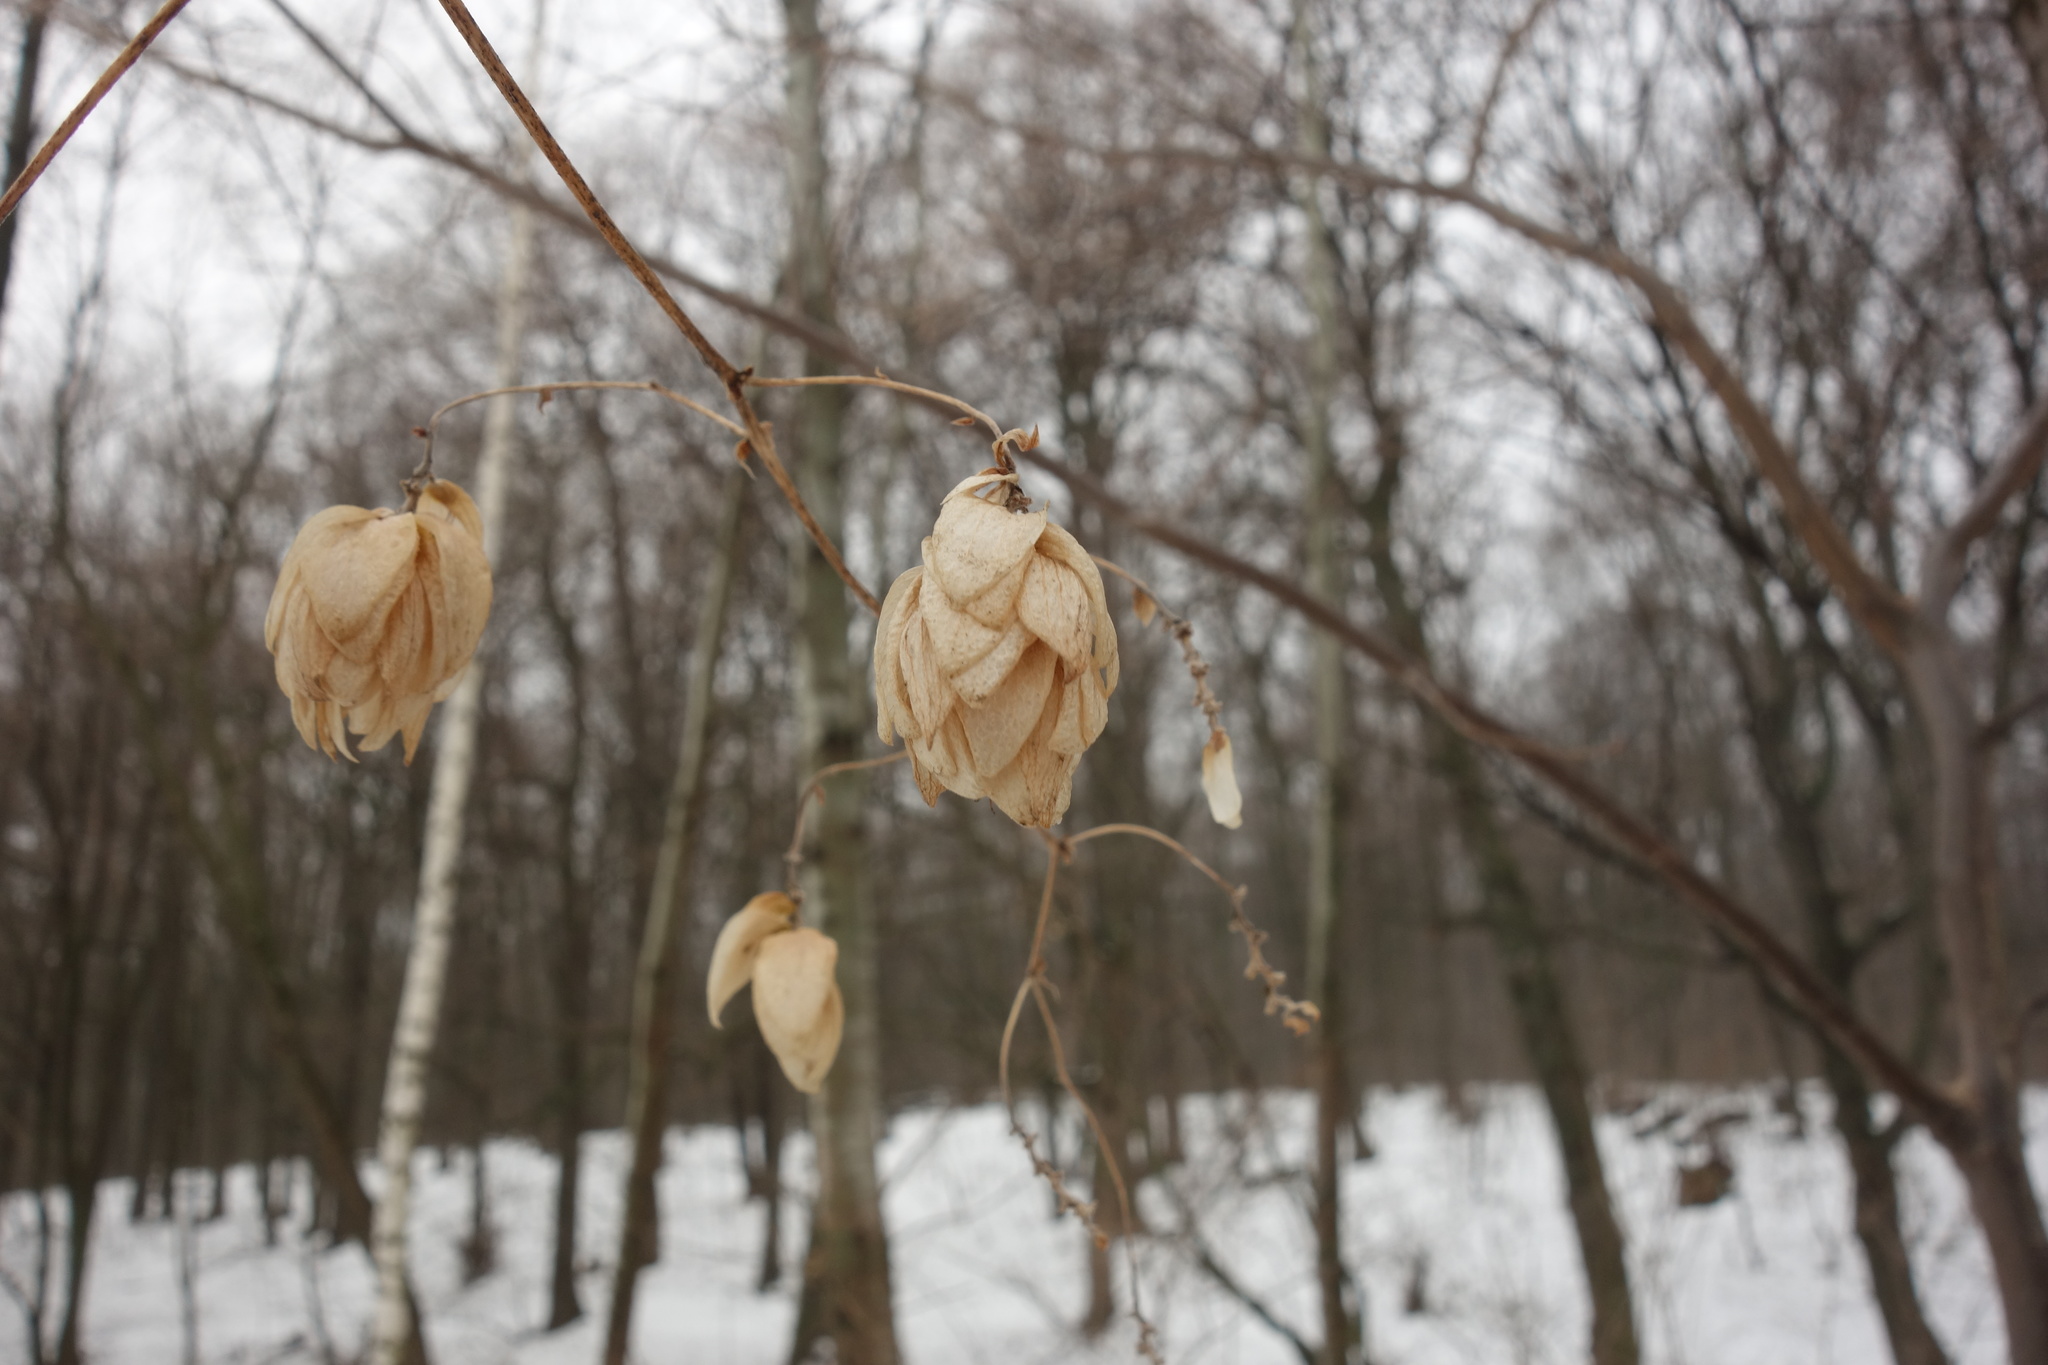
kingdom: Plantae
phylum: Tracheophyta
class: Magnoliopsida
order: Rosales
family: Cannabaceae
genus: Humulus
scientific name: Humulus lupulus
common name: Hop
